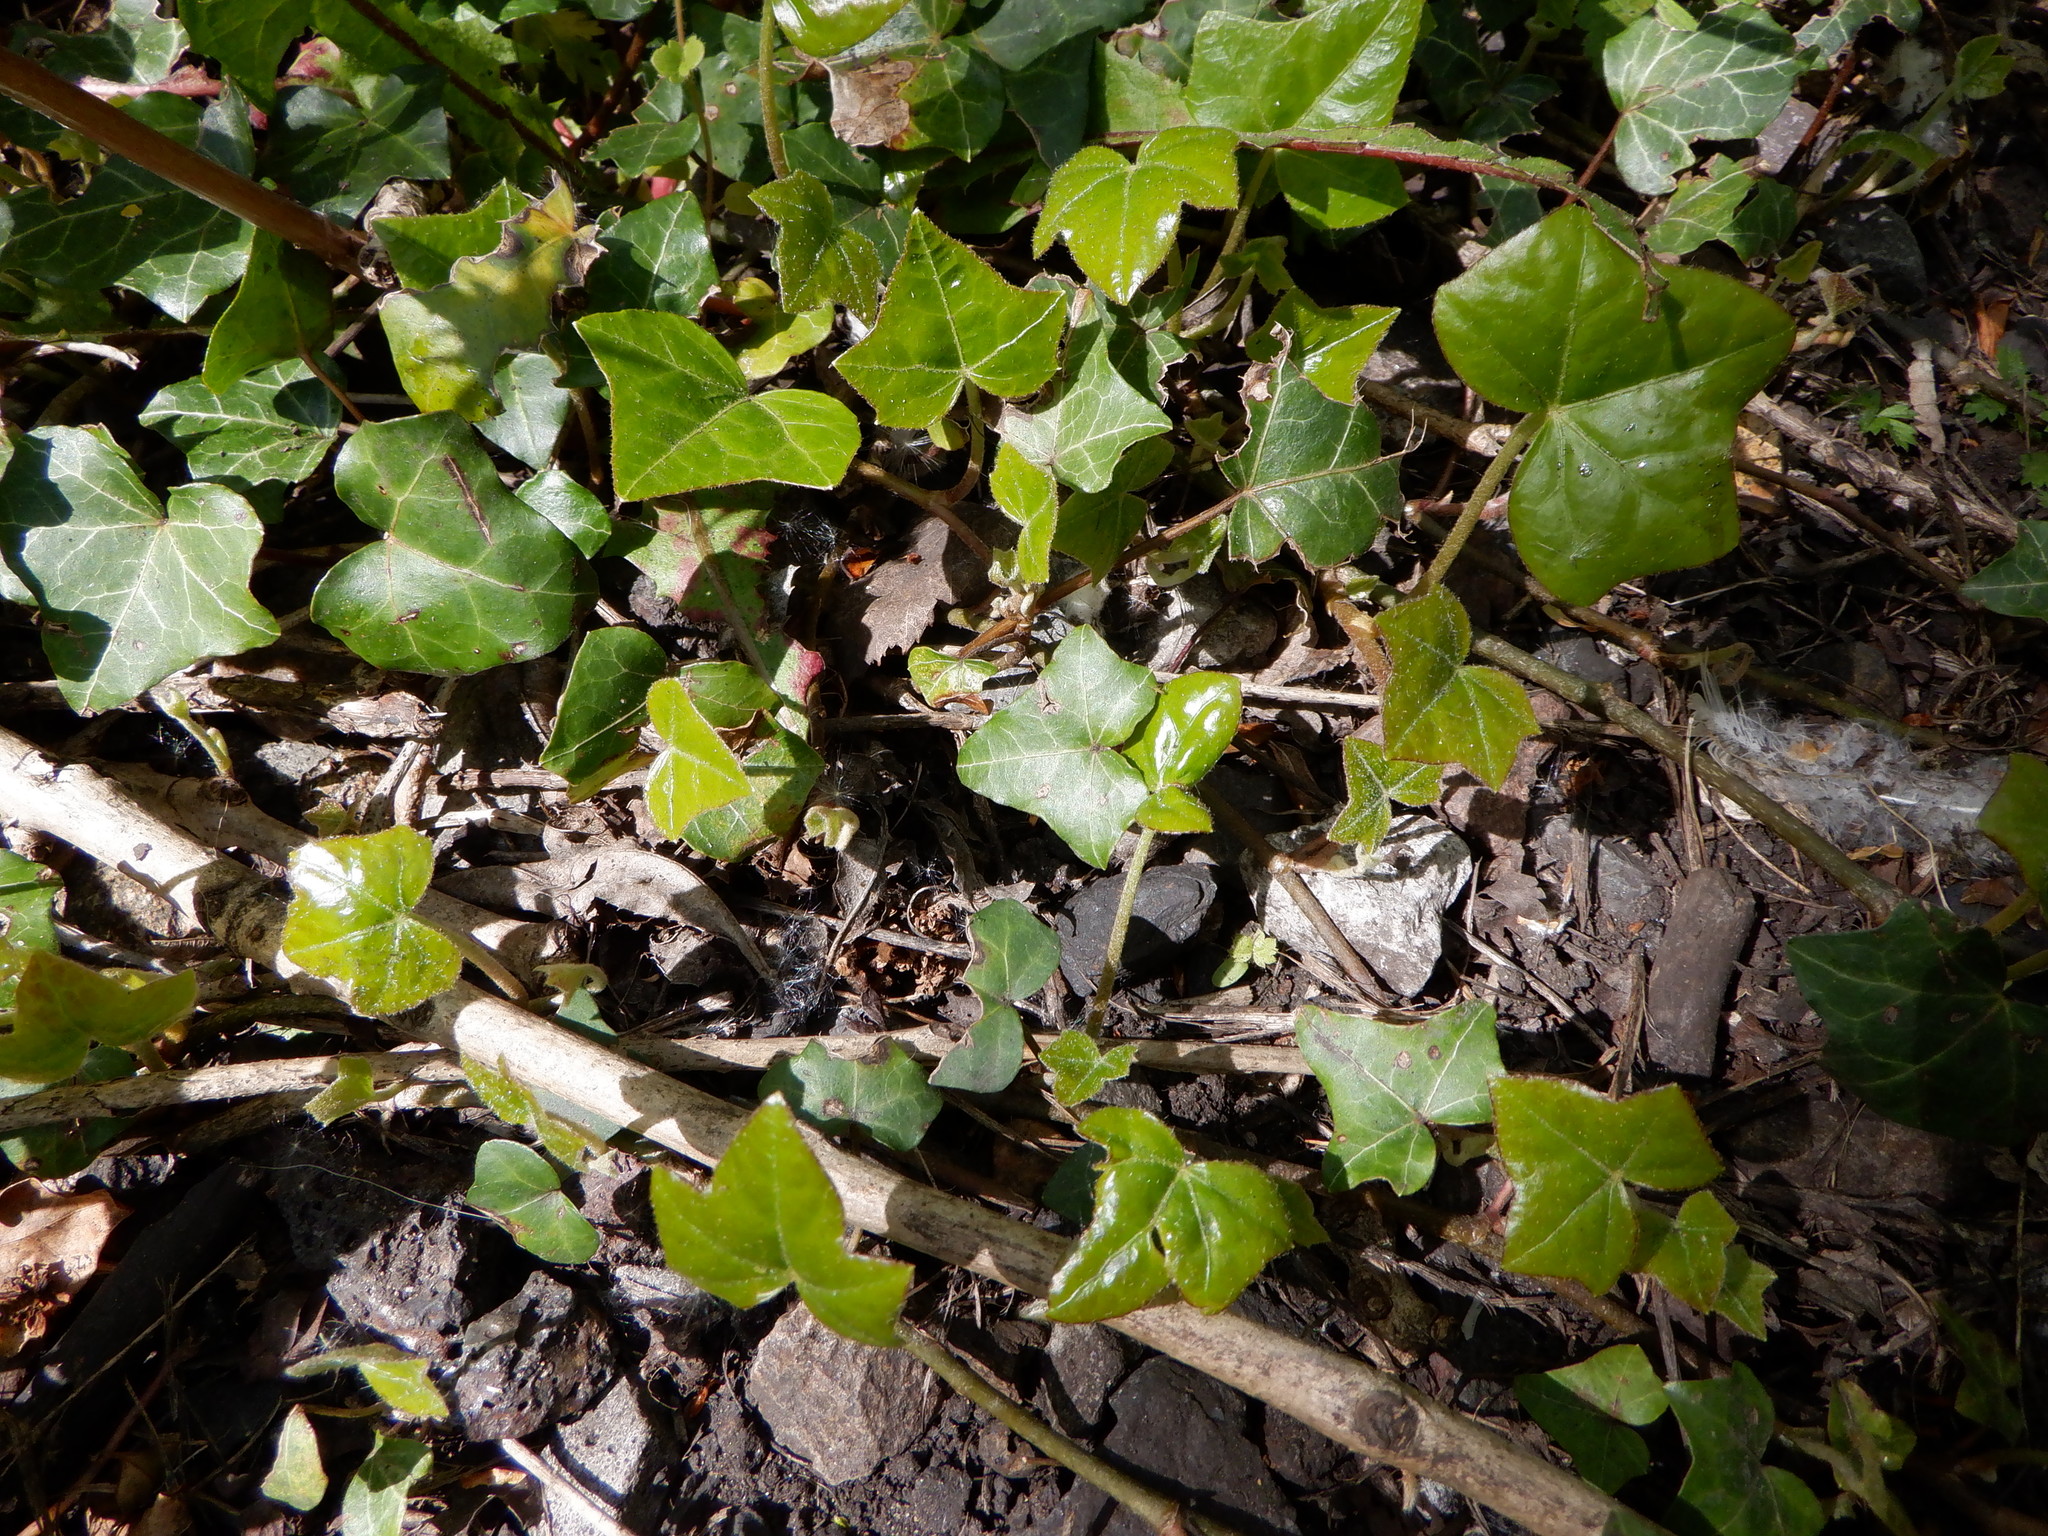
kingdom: Plantae
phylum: Tracheophyta
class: Magnoliopsida
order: Apiales
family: Araliaceae
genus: Hedera
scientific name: Hedera helix
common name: Ivy
